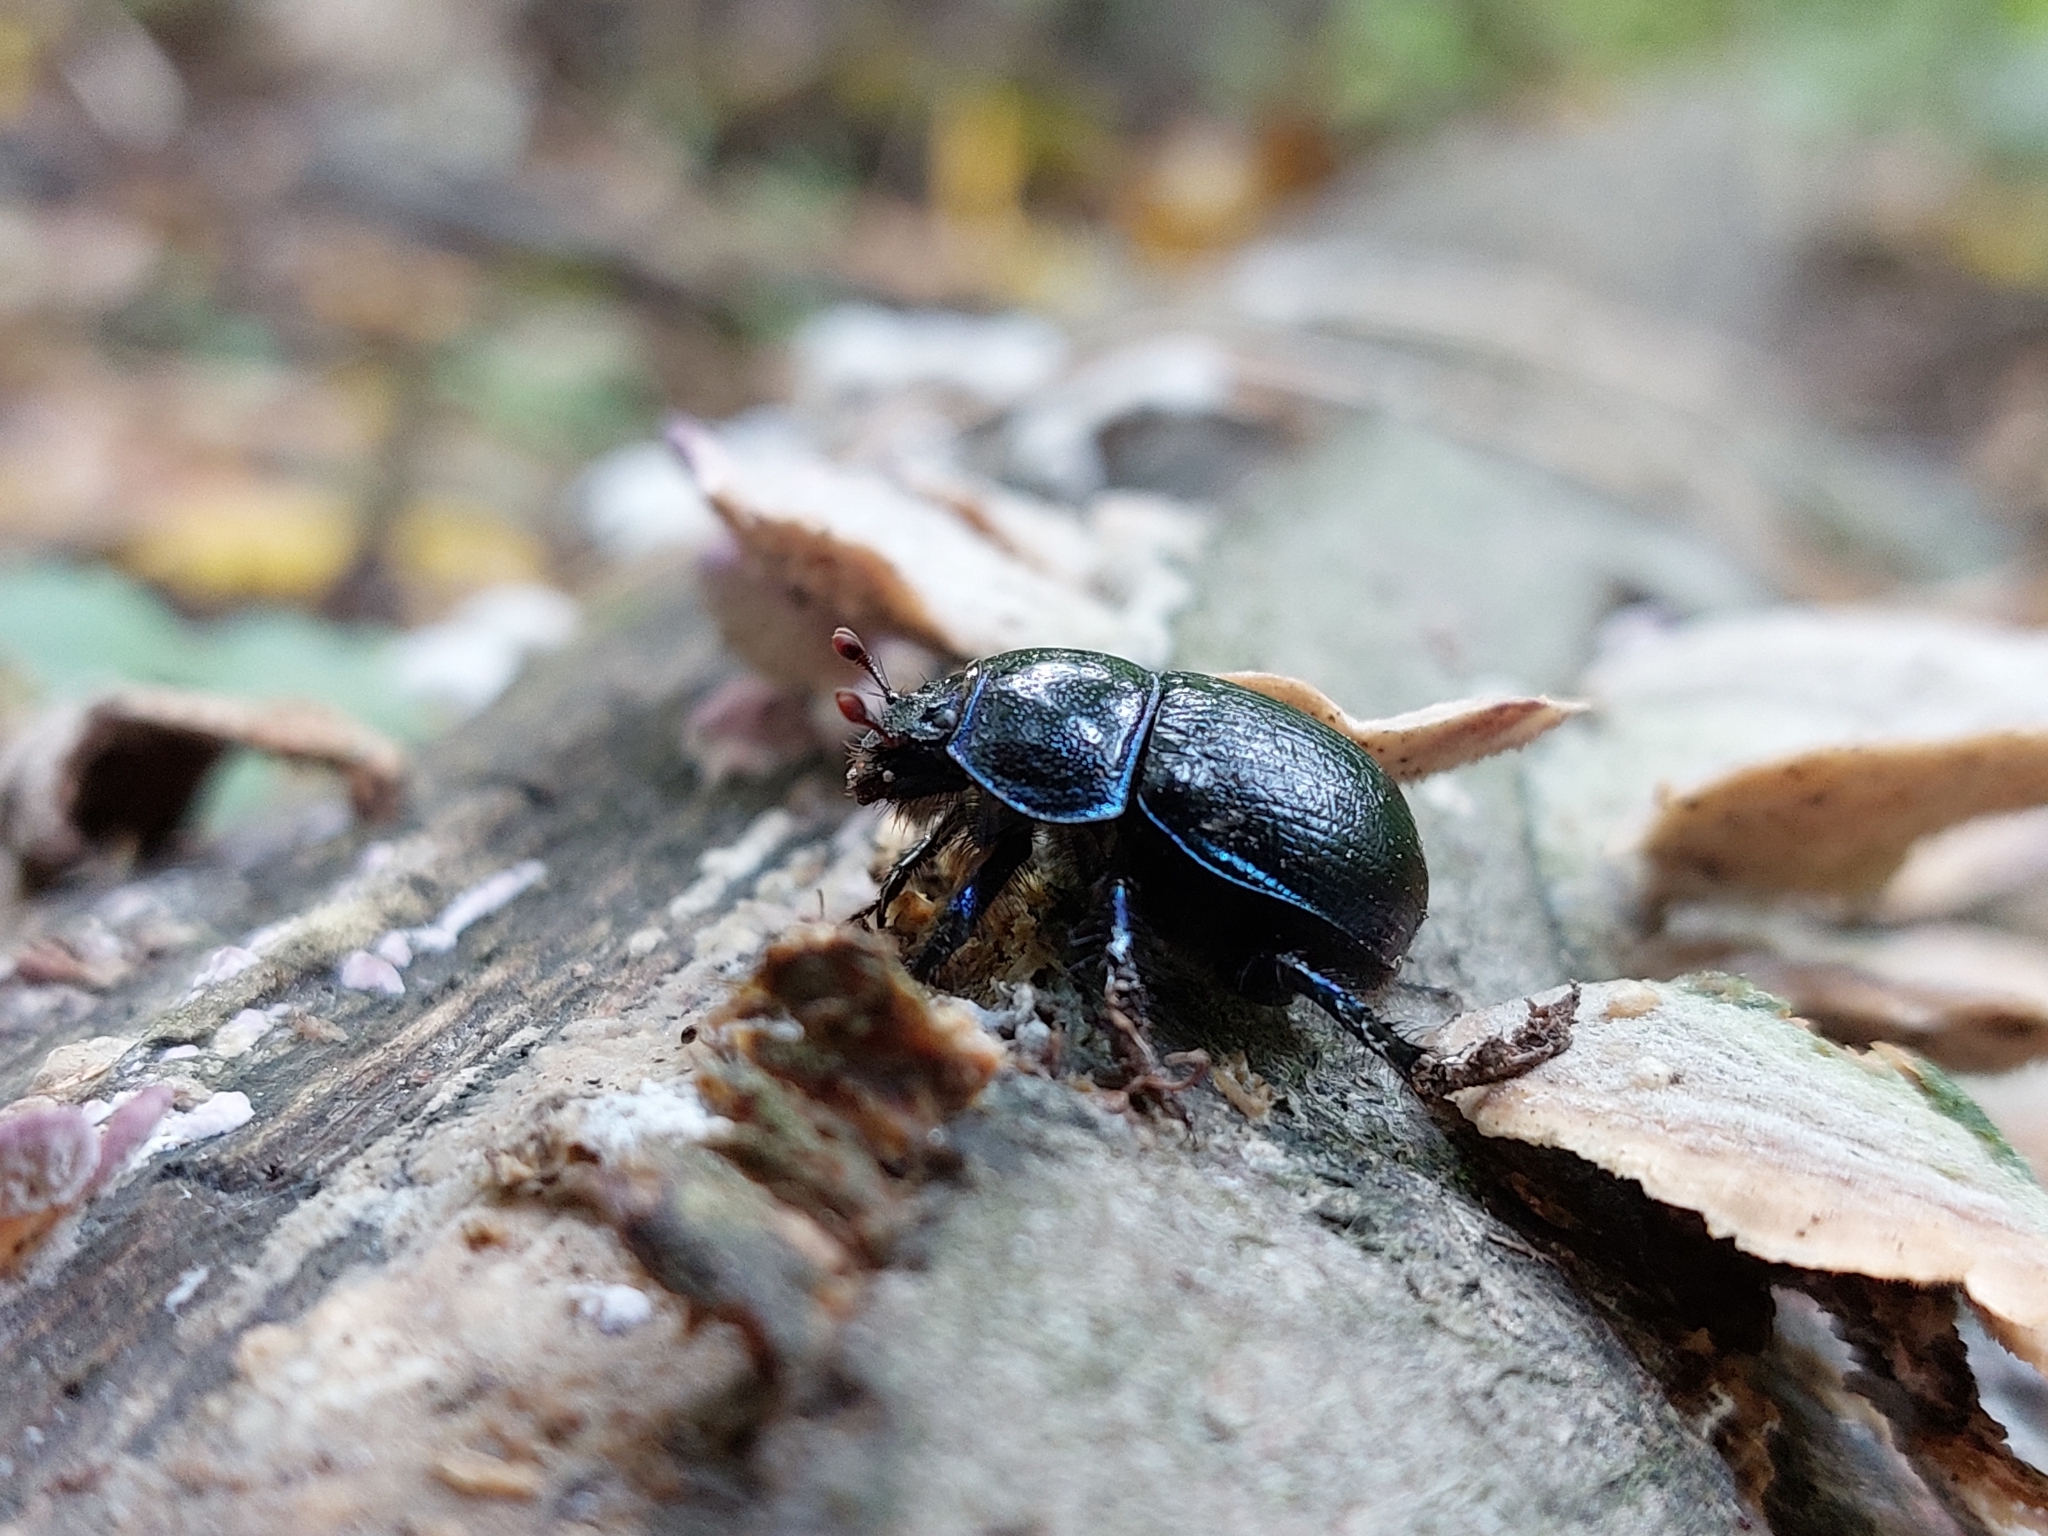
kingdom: Animalia
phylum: Arthropoda
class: Insecta
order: Coleoptera
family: Geotrupidae
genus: Anoplotrupes
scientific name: Anoplotrupes stercorosus
